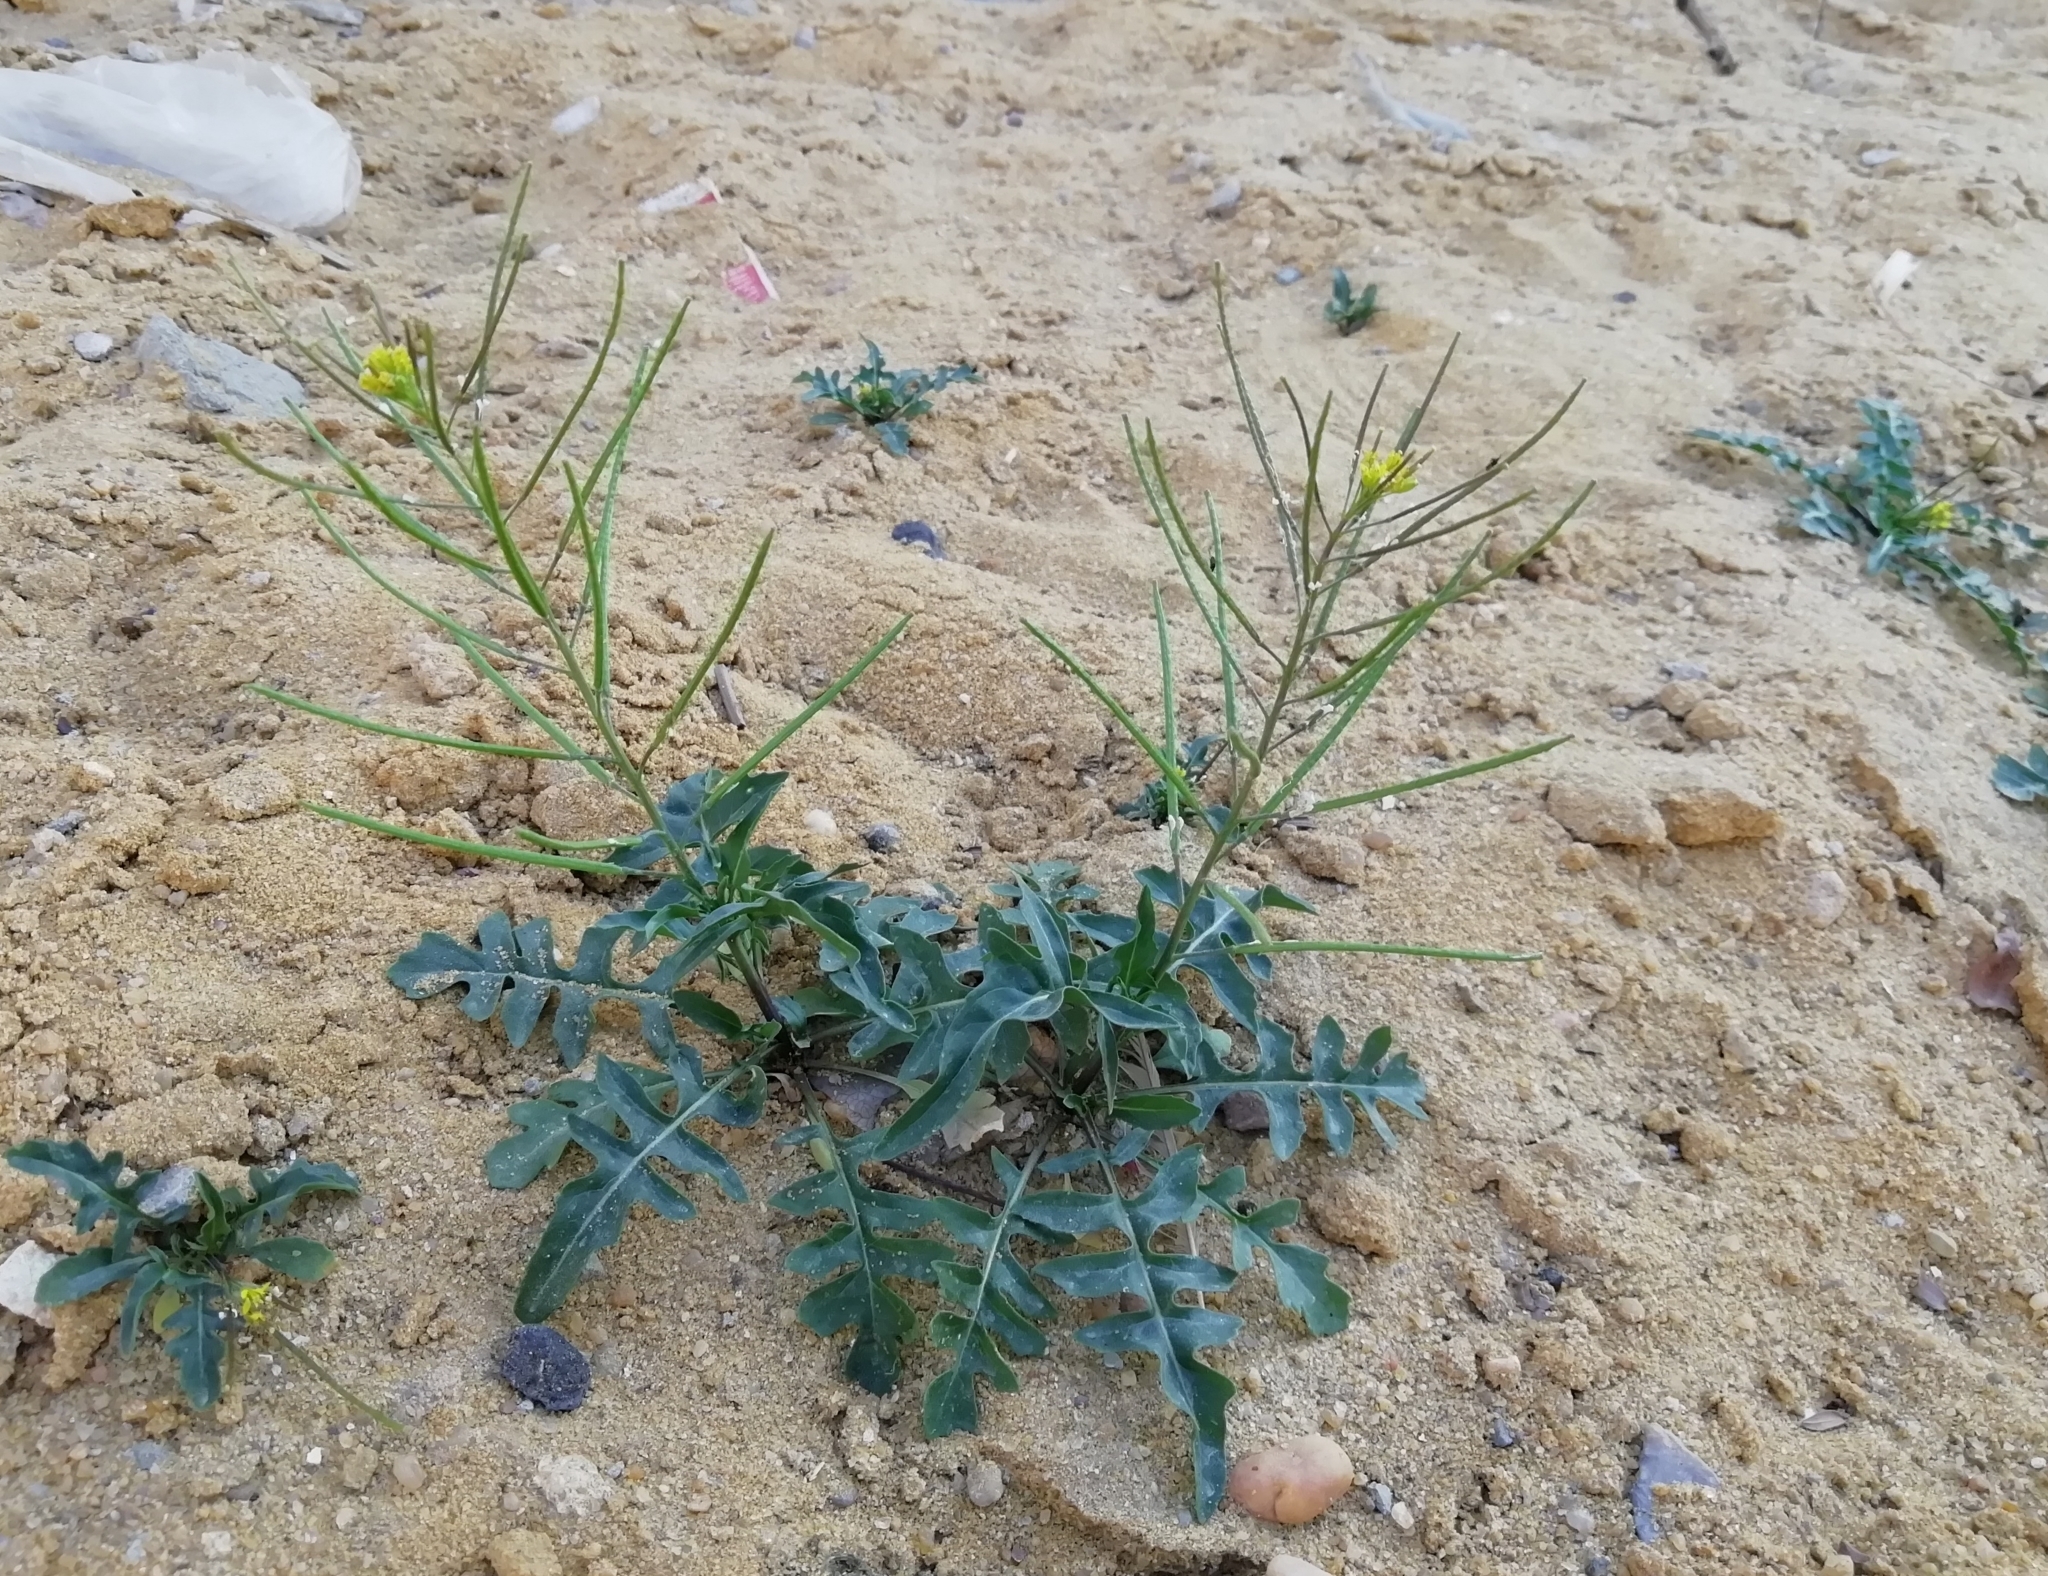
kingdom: Plantae
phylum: Tracheophyta
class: Magnoliopsida
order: Brassicales
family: Brassicaceae
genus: Sisymbrium
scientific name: Sisymbrium irio
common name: London rocket
